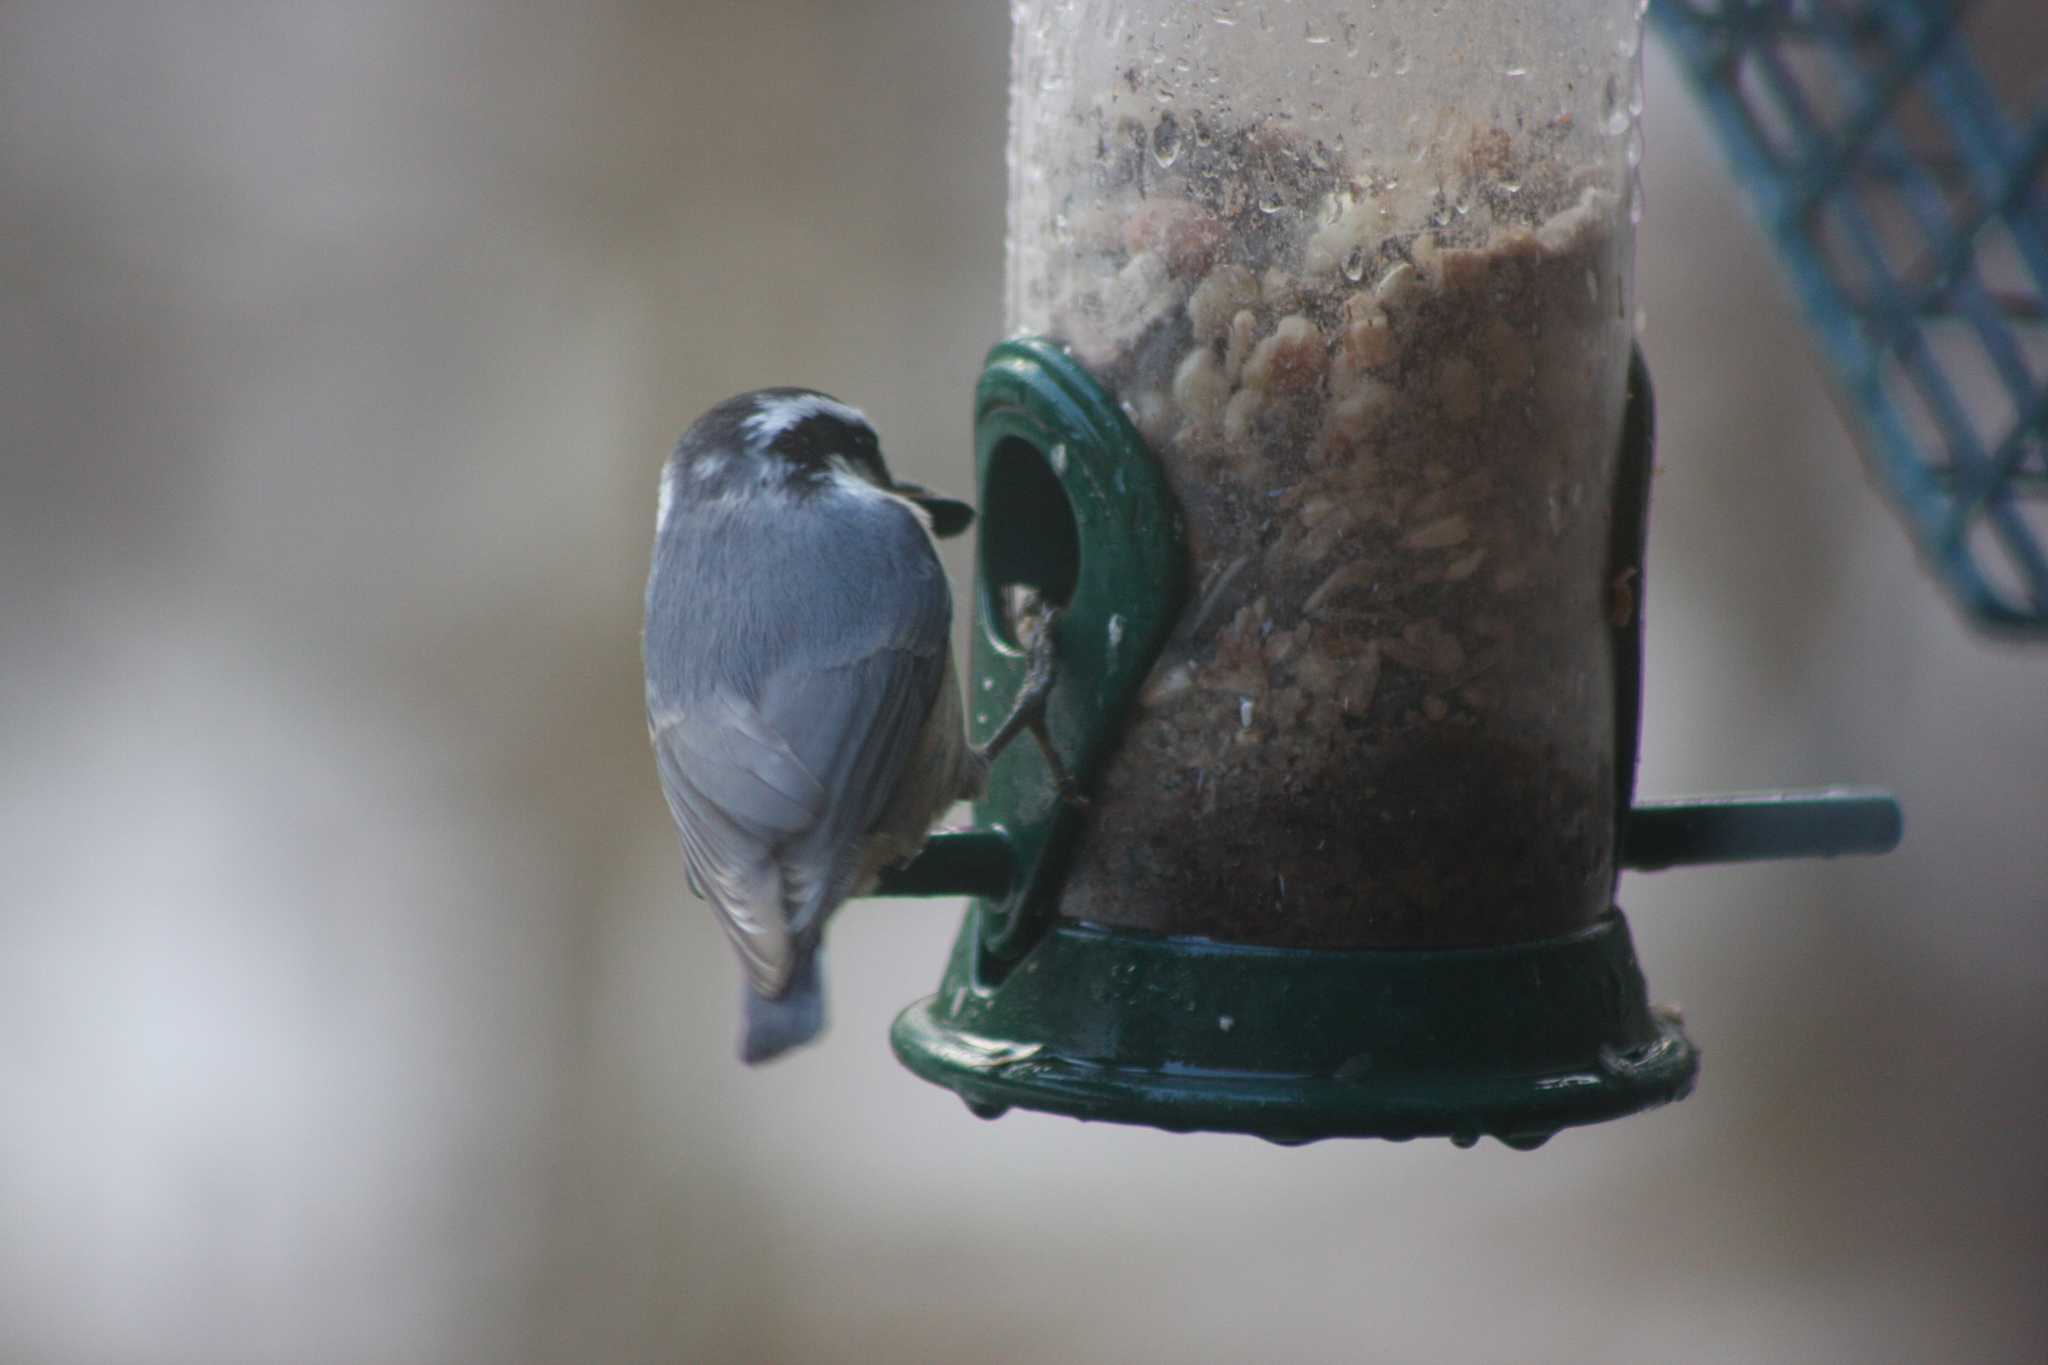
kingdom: Animalia
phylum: Chordata
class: Aves
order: Passeriformes
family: Sittidae
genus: Sitta
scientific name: Sitta canadensis
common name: Red-breasted nuthatch
